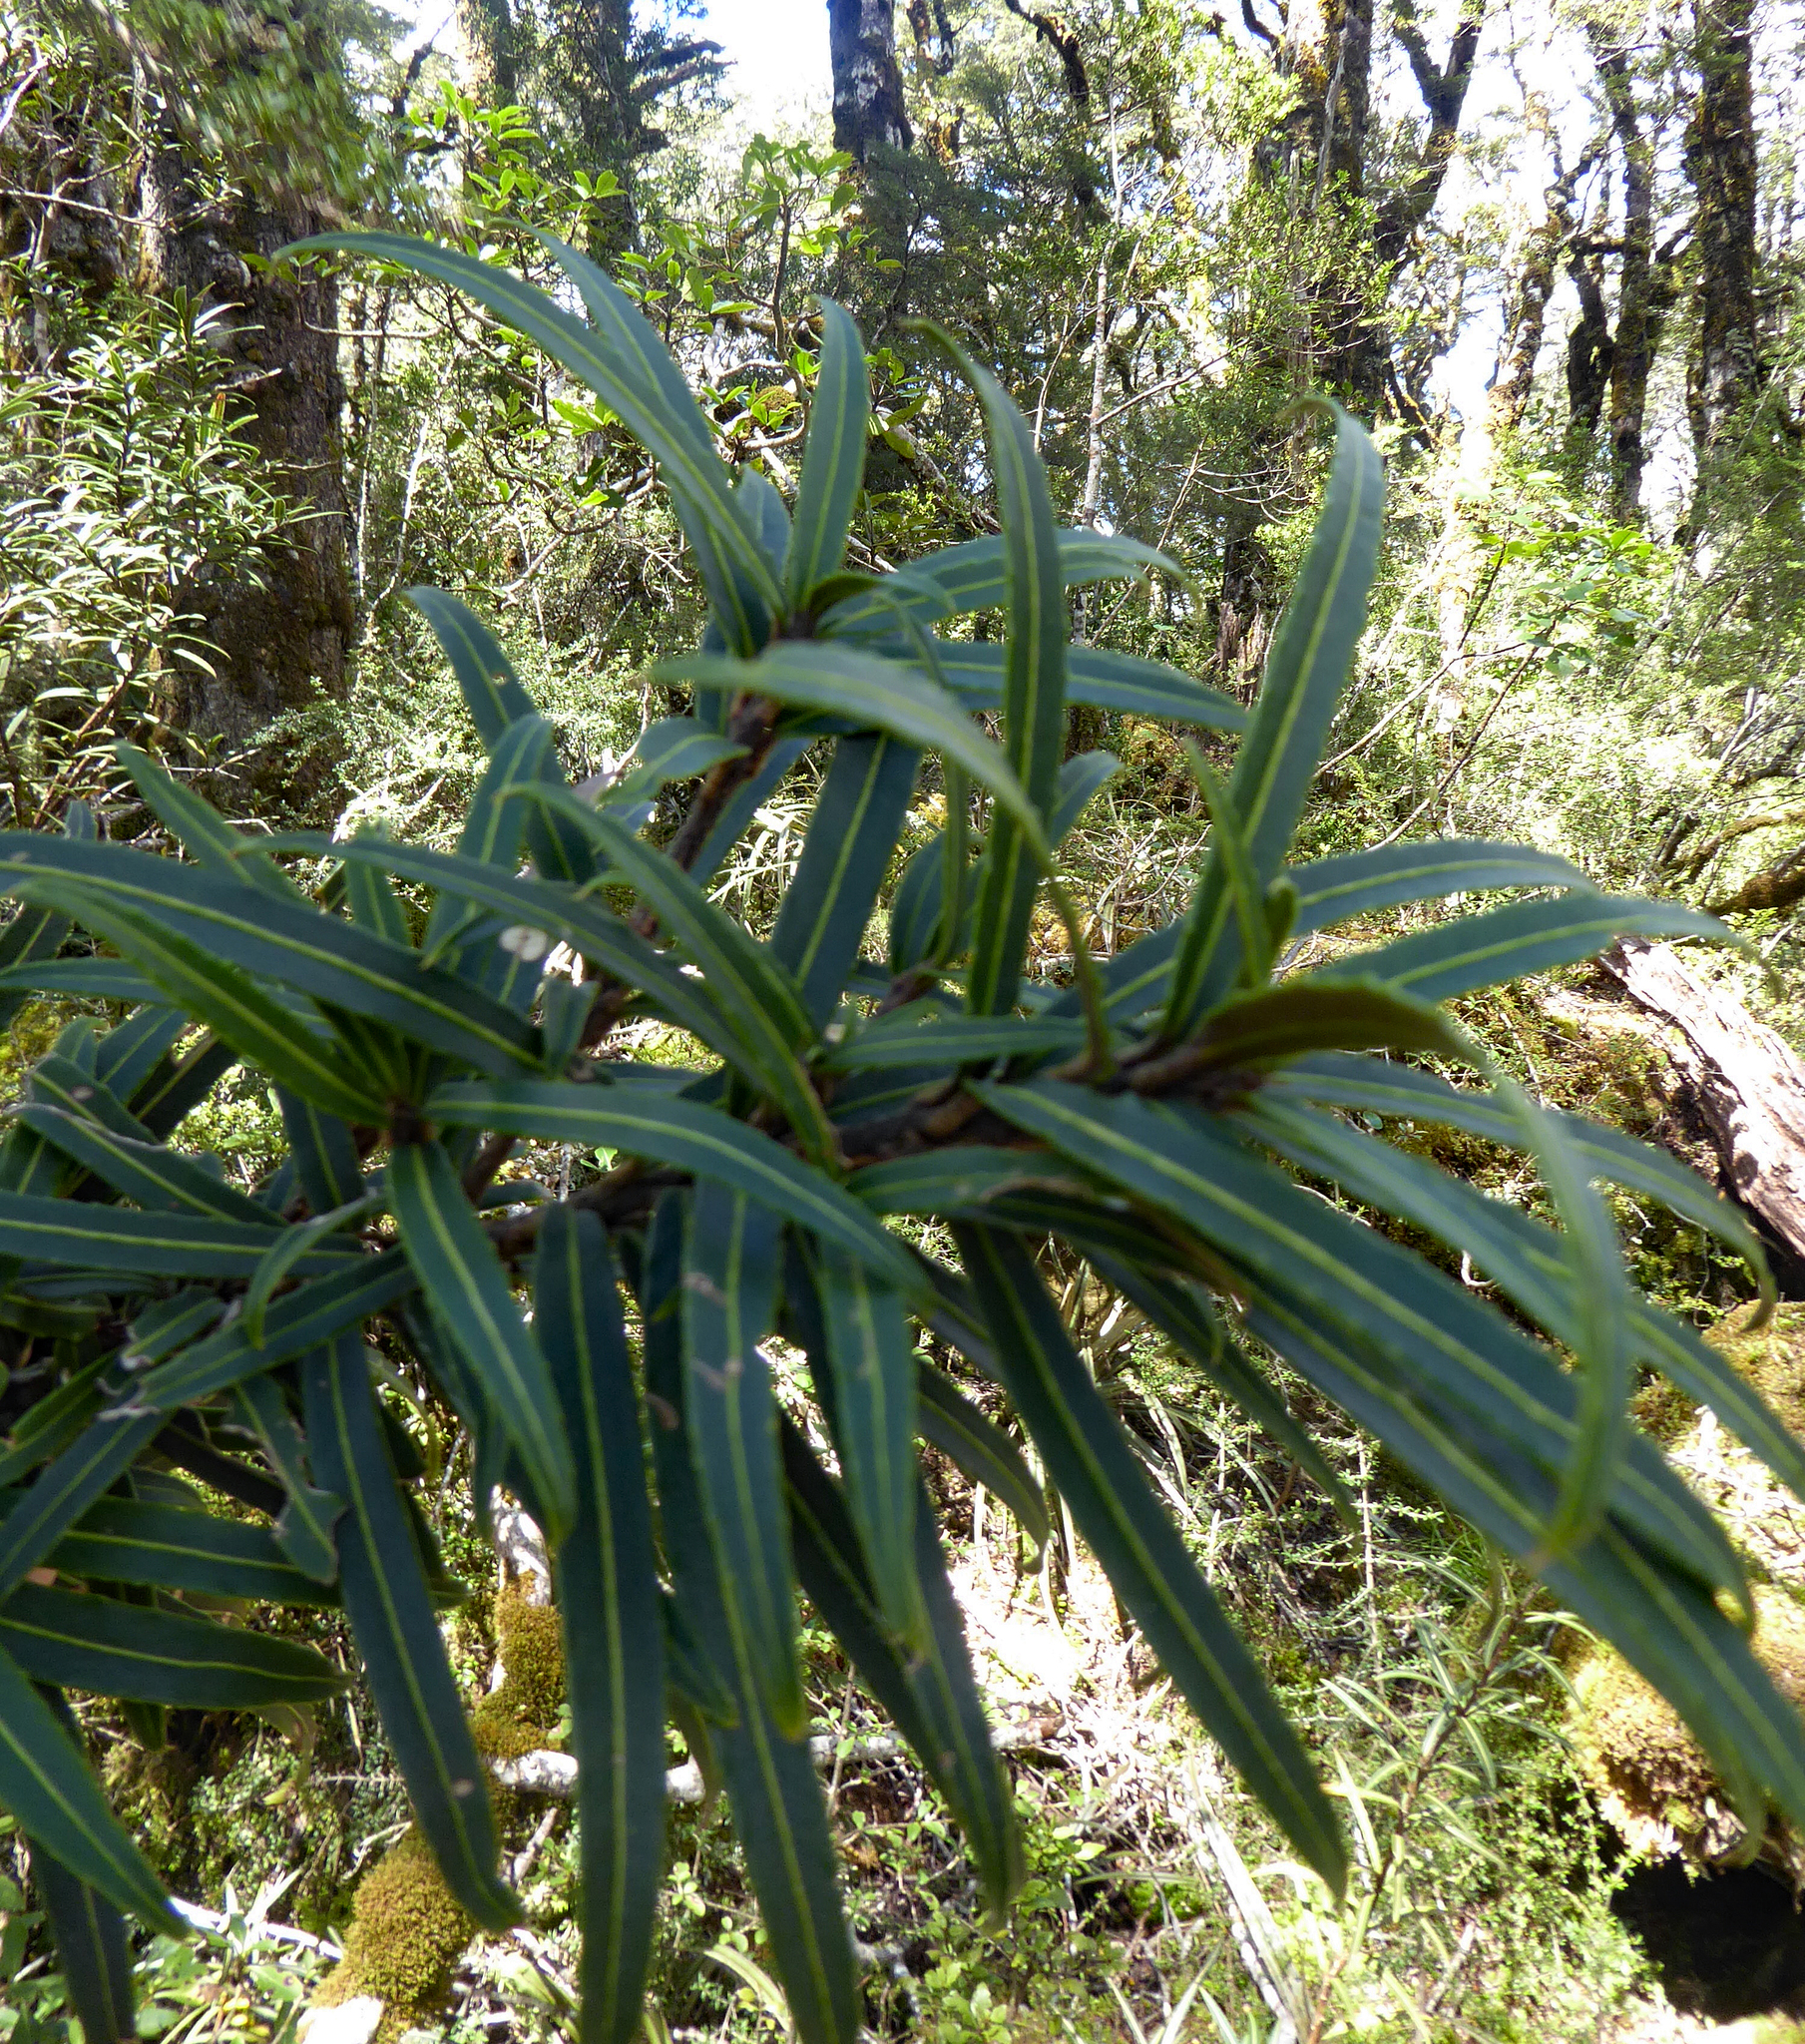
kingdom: Plantae
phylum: Tracheophyta
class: Magnoliopsida
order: Apiales
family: Araliaceae
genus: Pseudopanax
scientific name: Pseudopanax linearis
